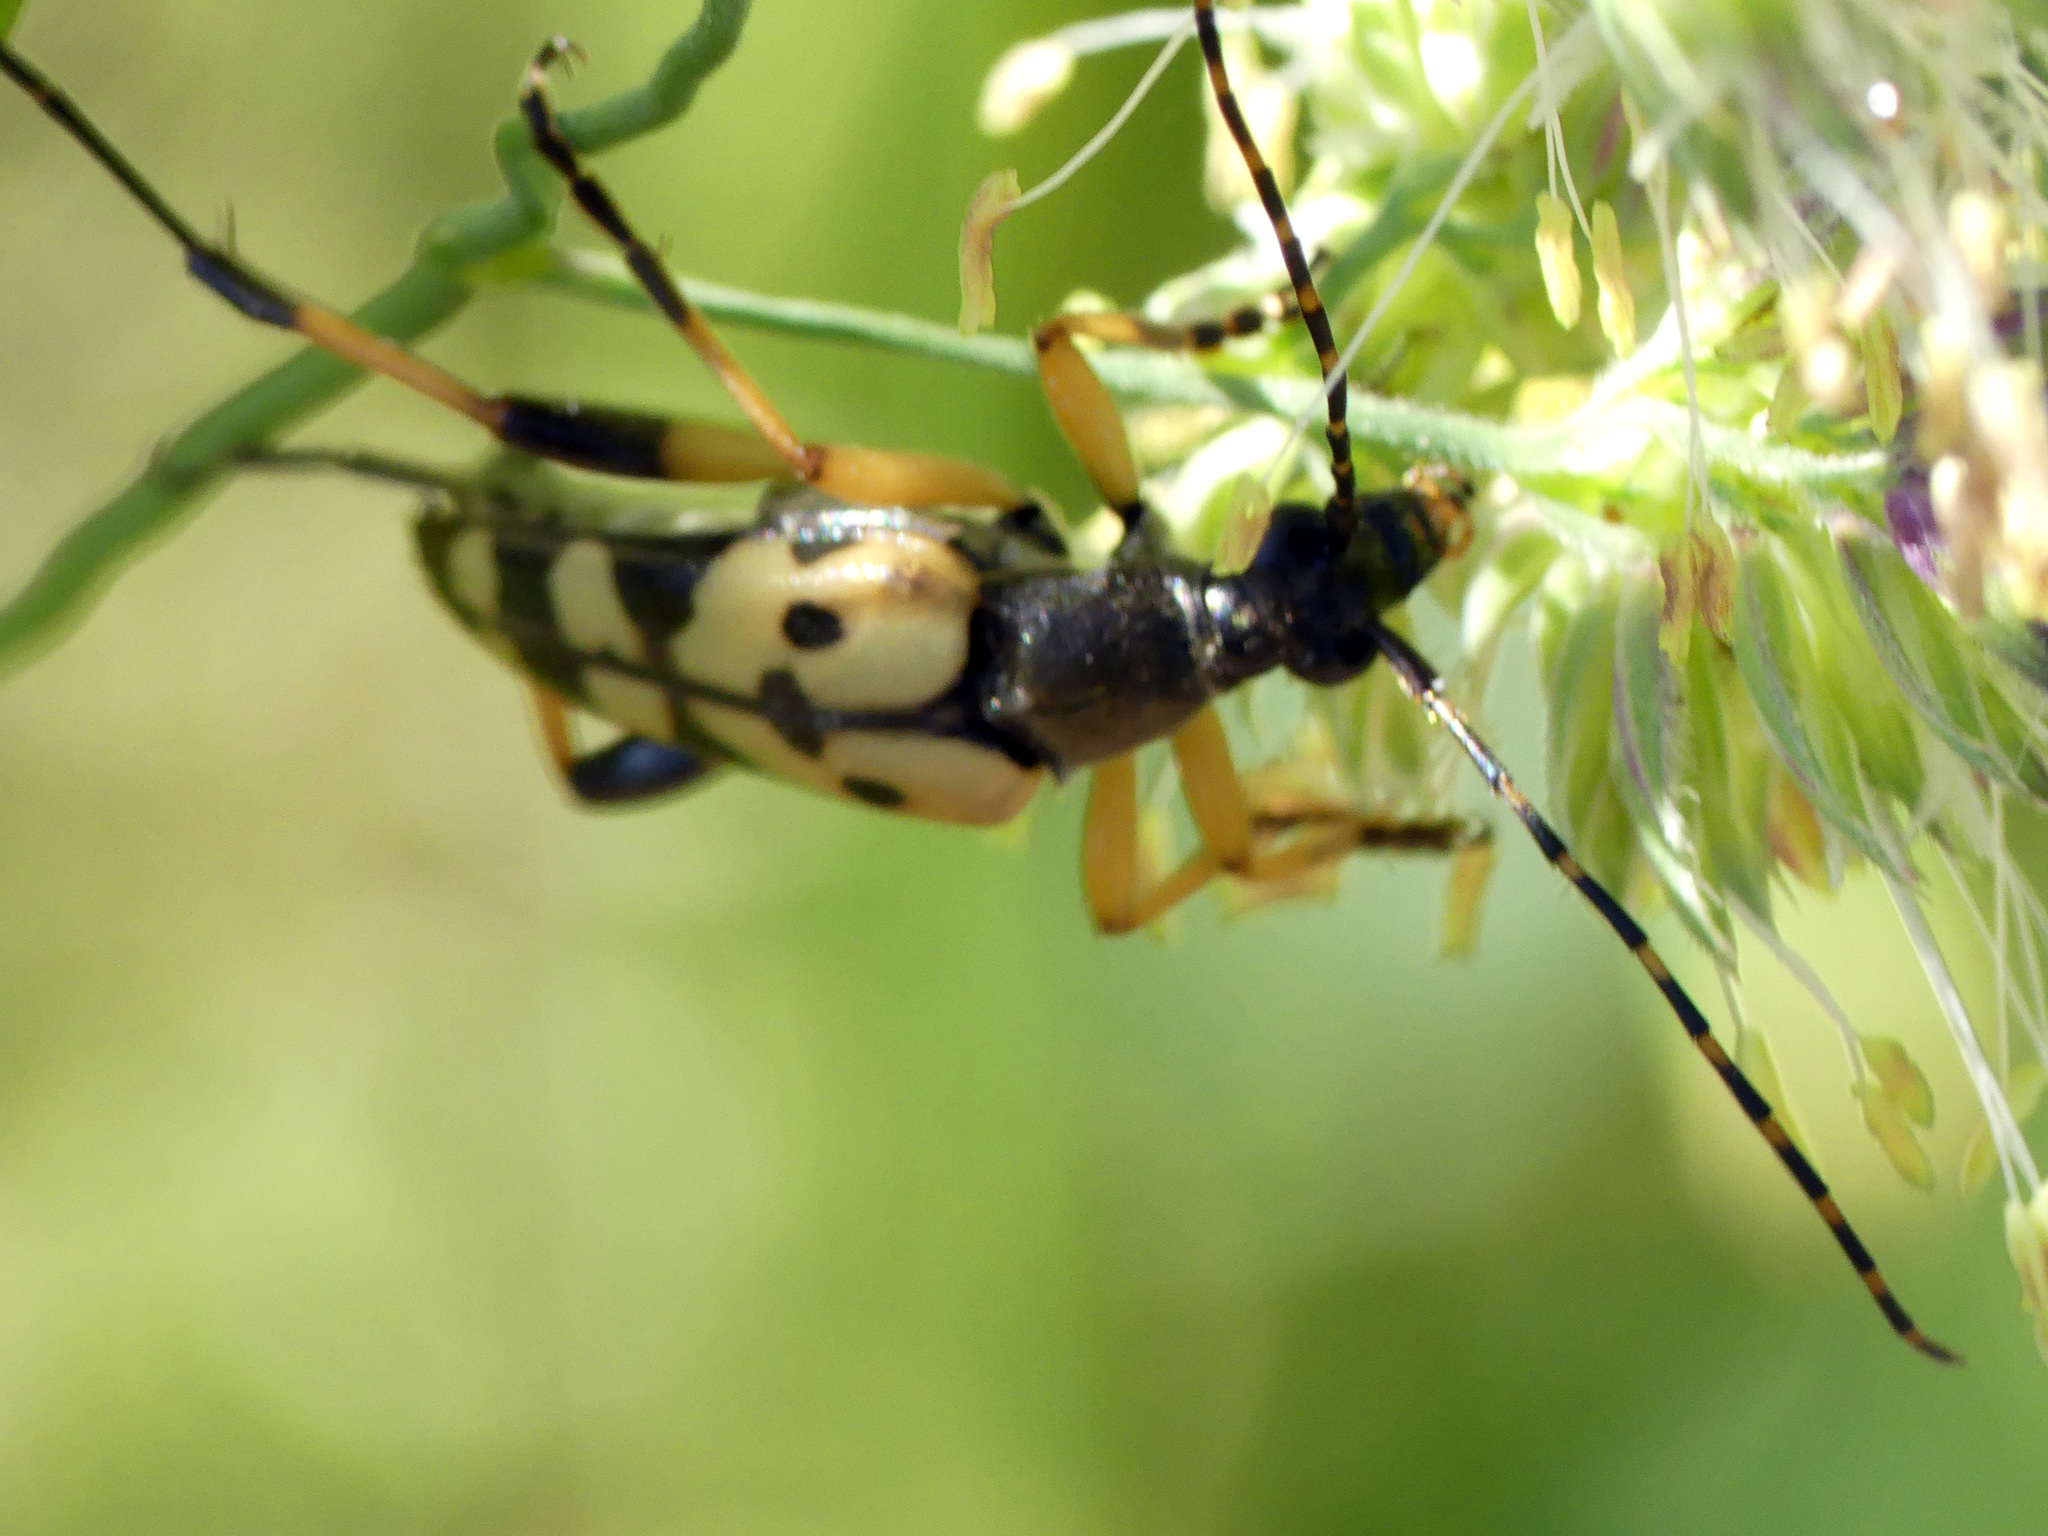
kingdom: Animalia
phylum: Arthropoda
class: Insecta
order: Coleoptera
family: Cerambycidae
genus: Rutpela
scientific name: Rutpela maculata
